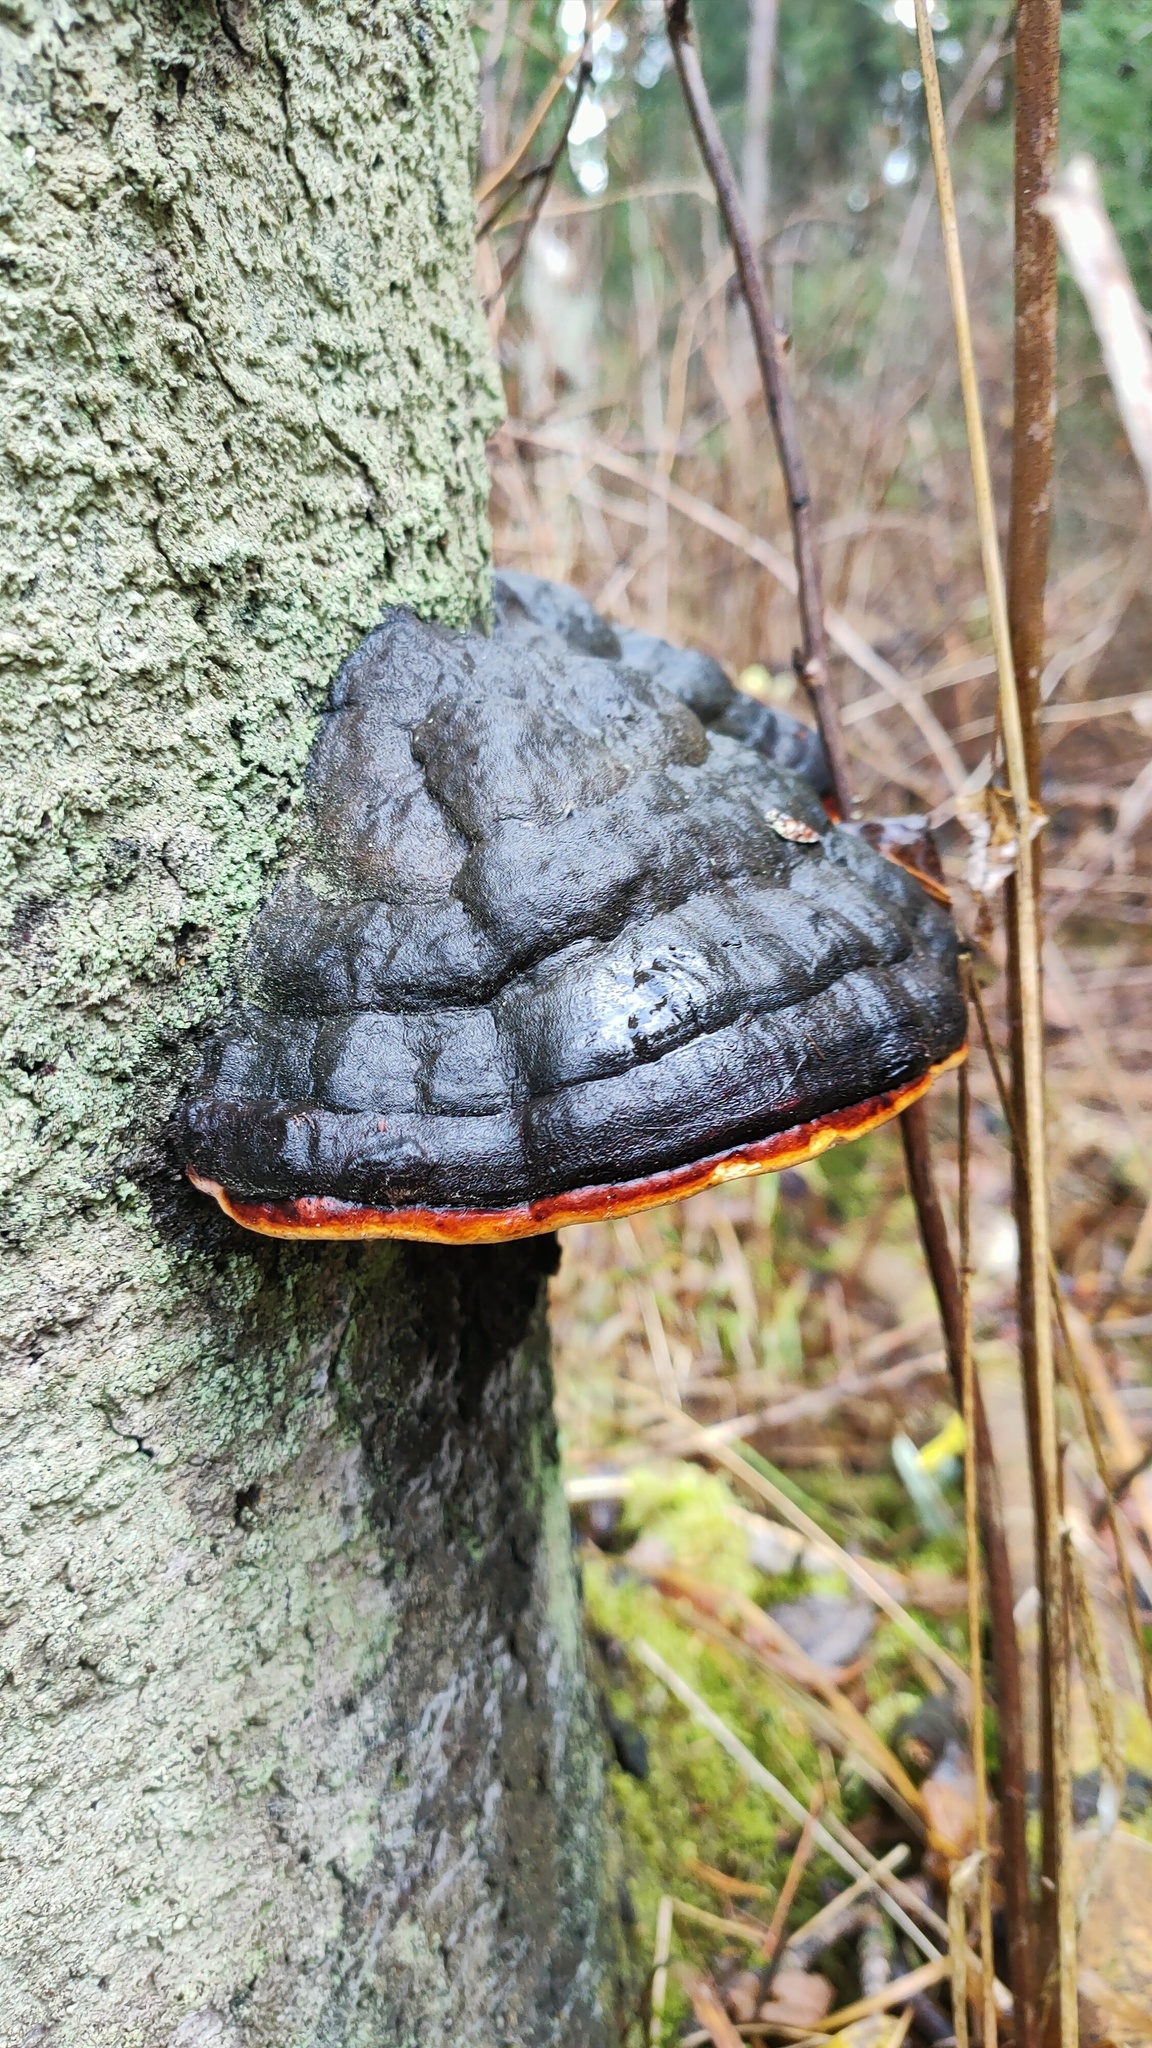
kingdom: Fungi
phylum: Basidiomycota
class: Agaricomycetes
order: Polyporales
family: Fomitopsidaceae
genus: Fomitopsis
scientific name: Fomitopsis pinicola
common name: Red-belted bracket
